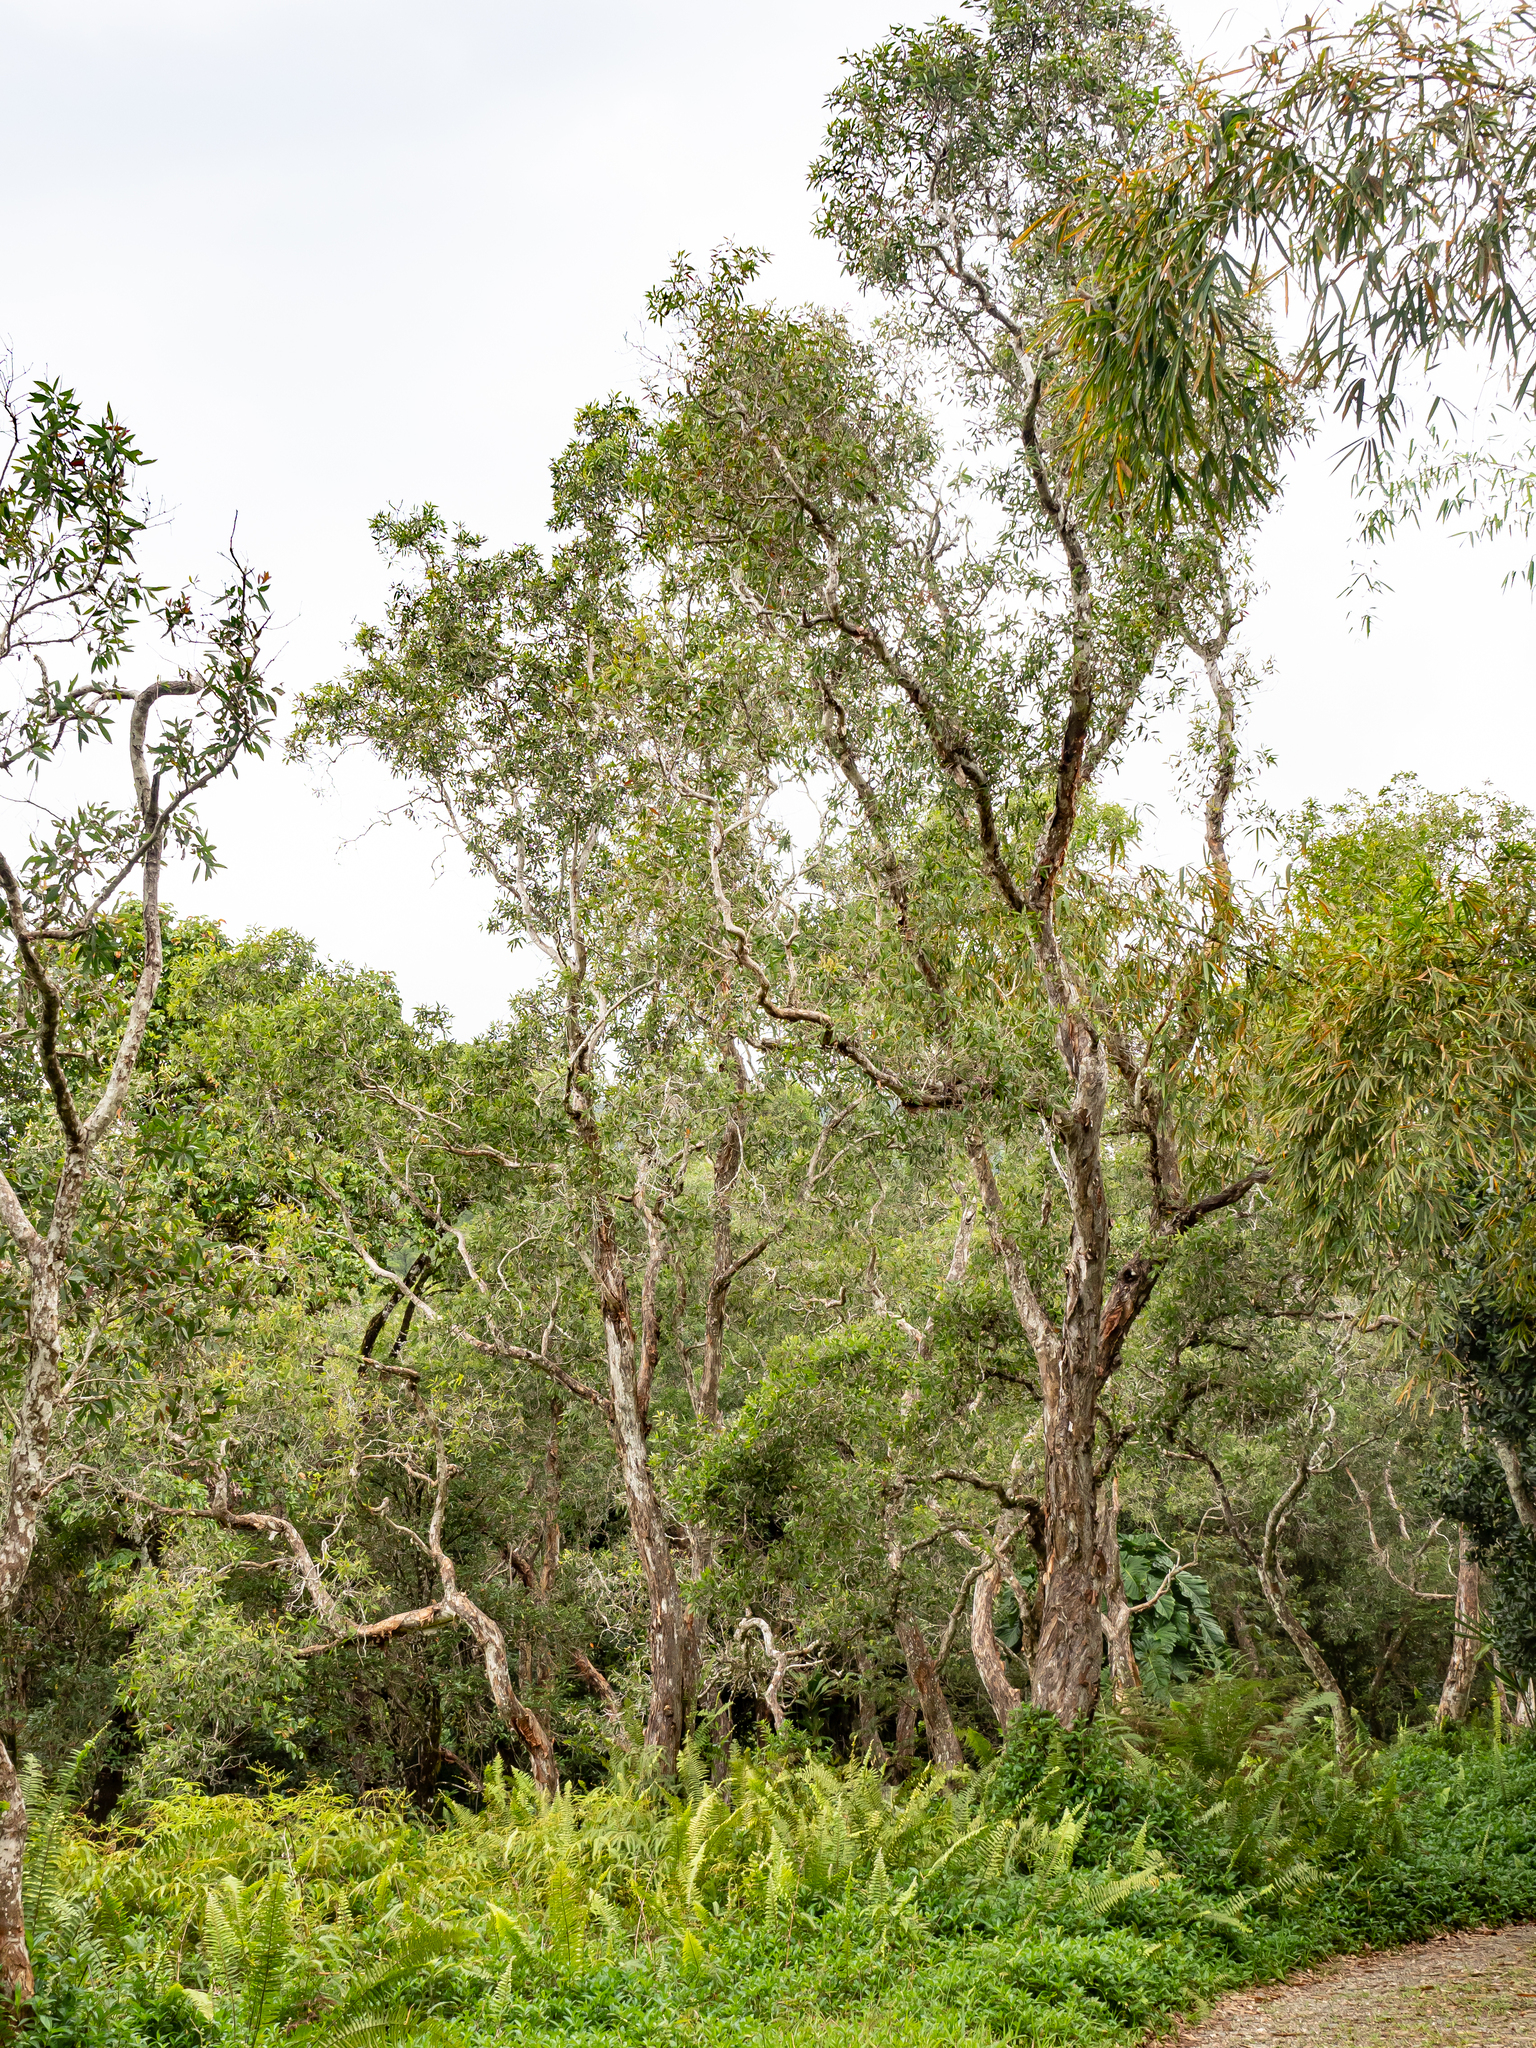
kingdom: Plantae
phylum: Tracheophyta
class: Magnoliopsida
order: Myrtales
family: Myrtaceae
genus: Melaleuca
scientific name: Melaleuca quinquenervia
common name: Punktree
